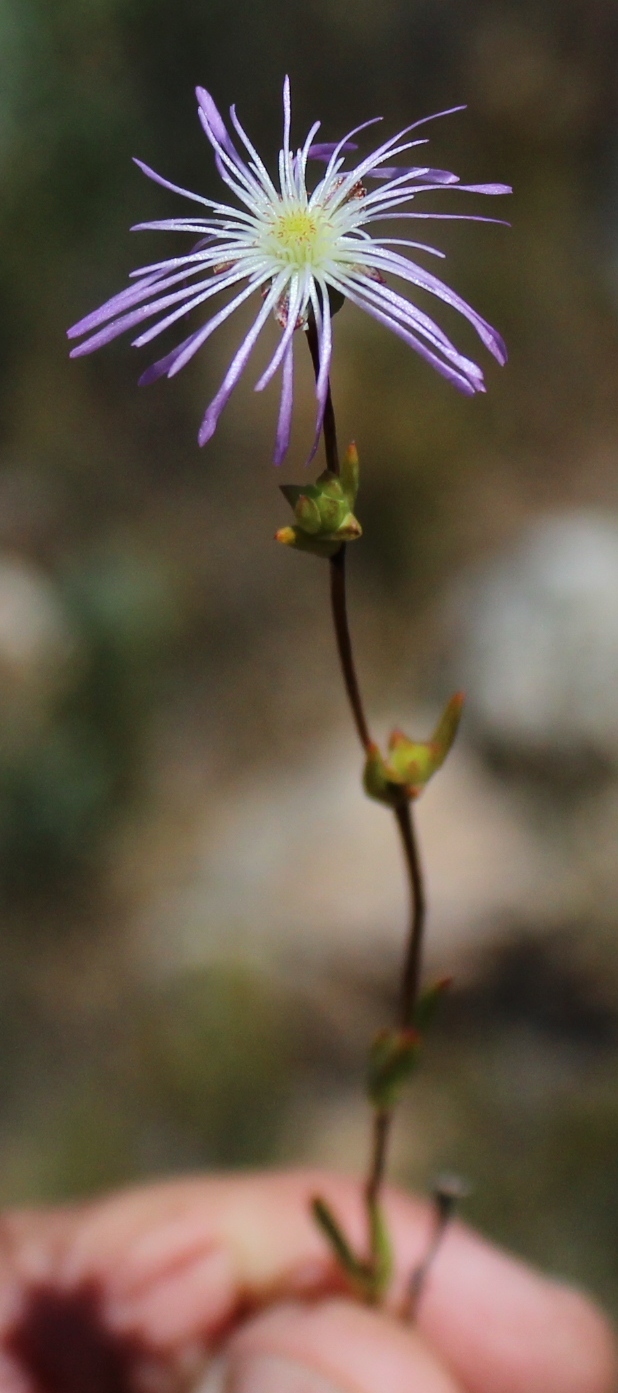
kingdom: Plantae
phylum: Tracheophyta
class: Magnoliopsida
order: Caryophyllales
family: Aizoaceae
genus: Erepsia
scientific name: Erepsia gracilis
